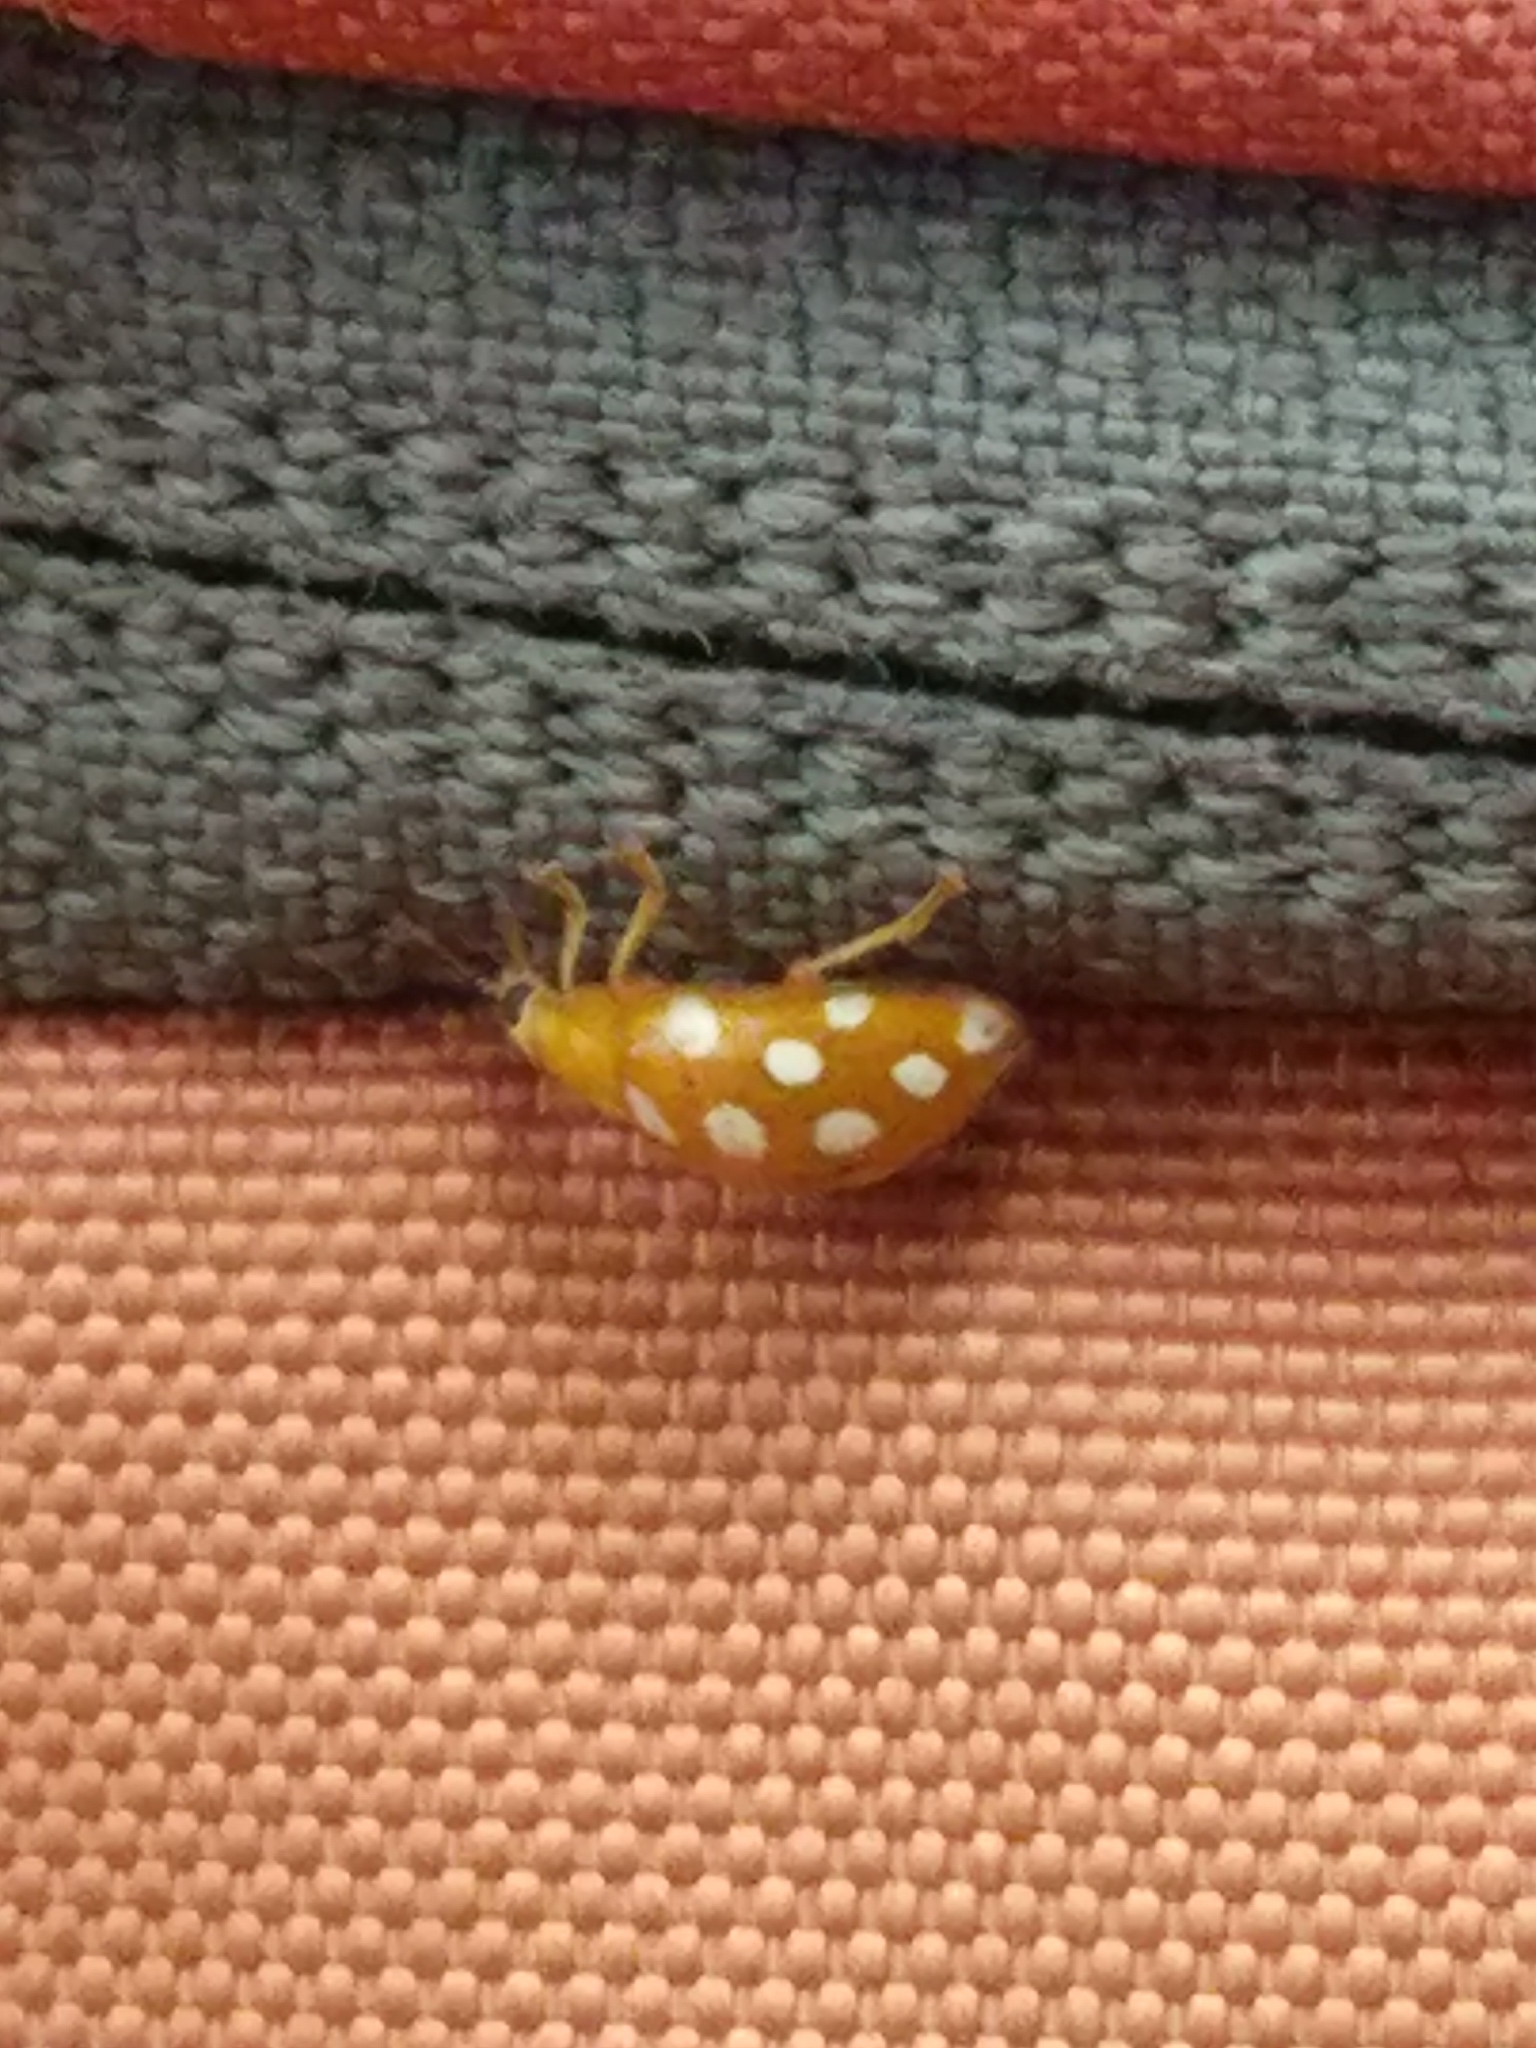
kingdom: Animalia
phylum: Arthropoda
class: Insecta
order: Coleoptera
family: Coccinellidae
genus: Halyzia
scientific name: Halyzia sedecimguttata
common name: Orange ladybird
